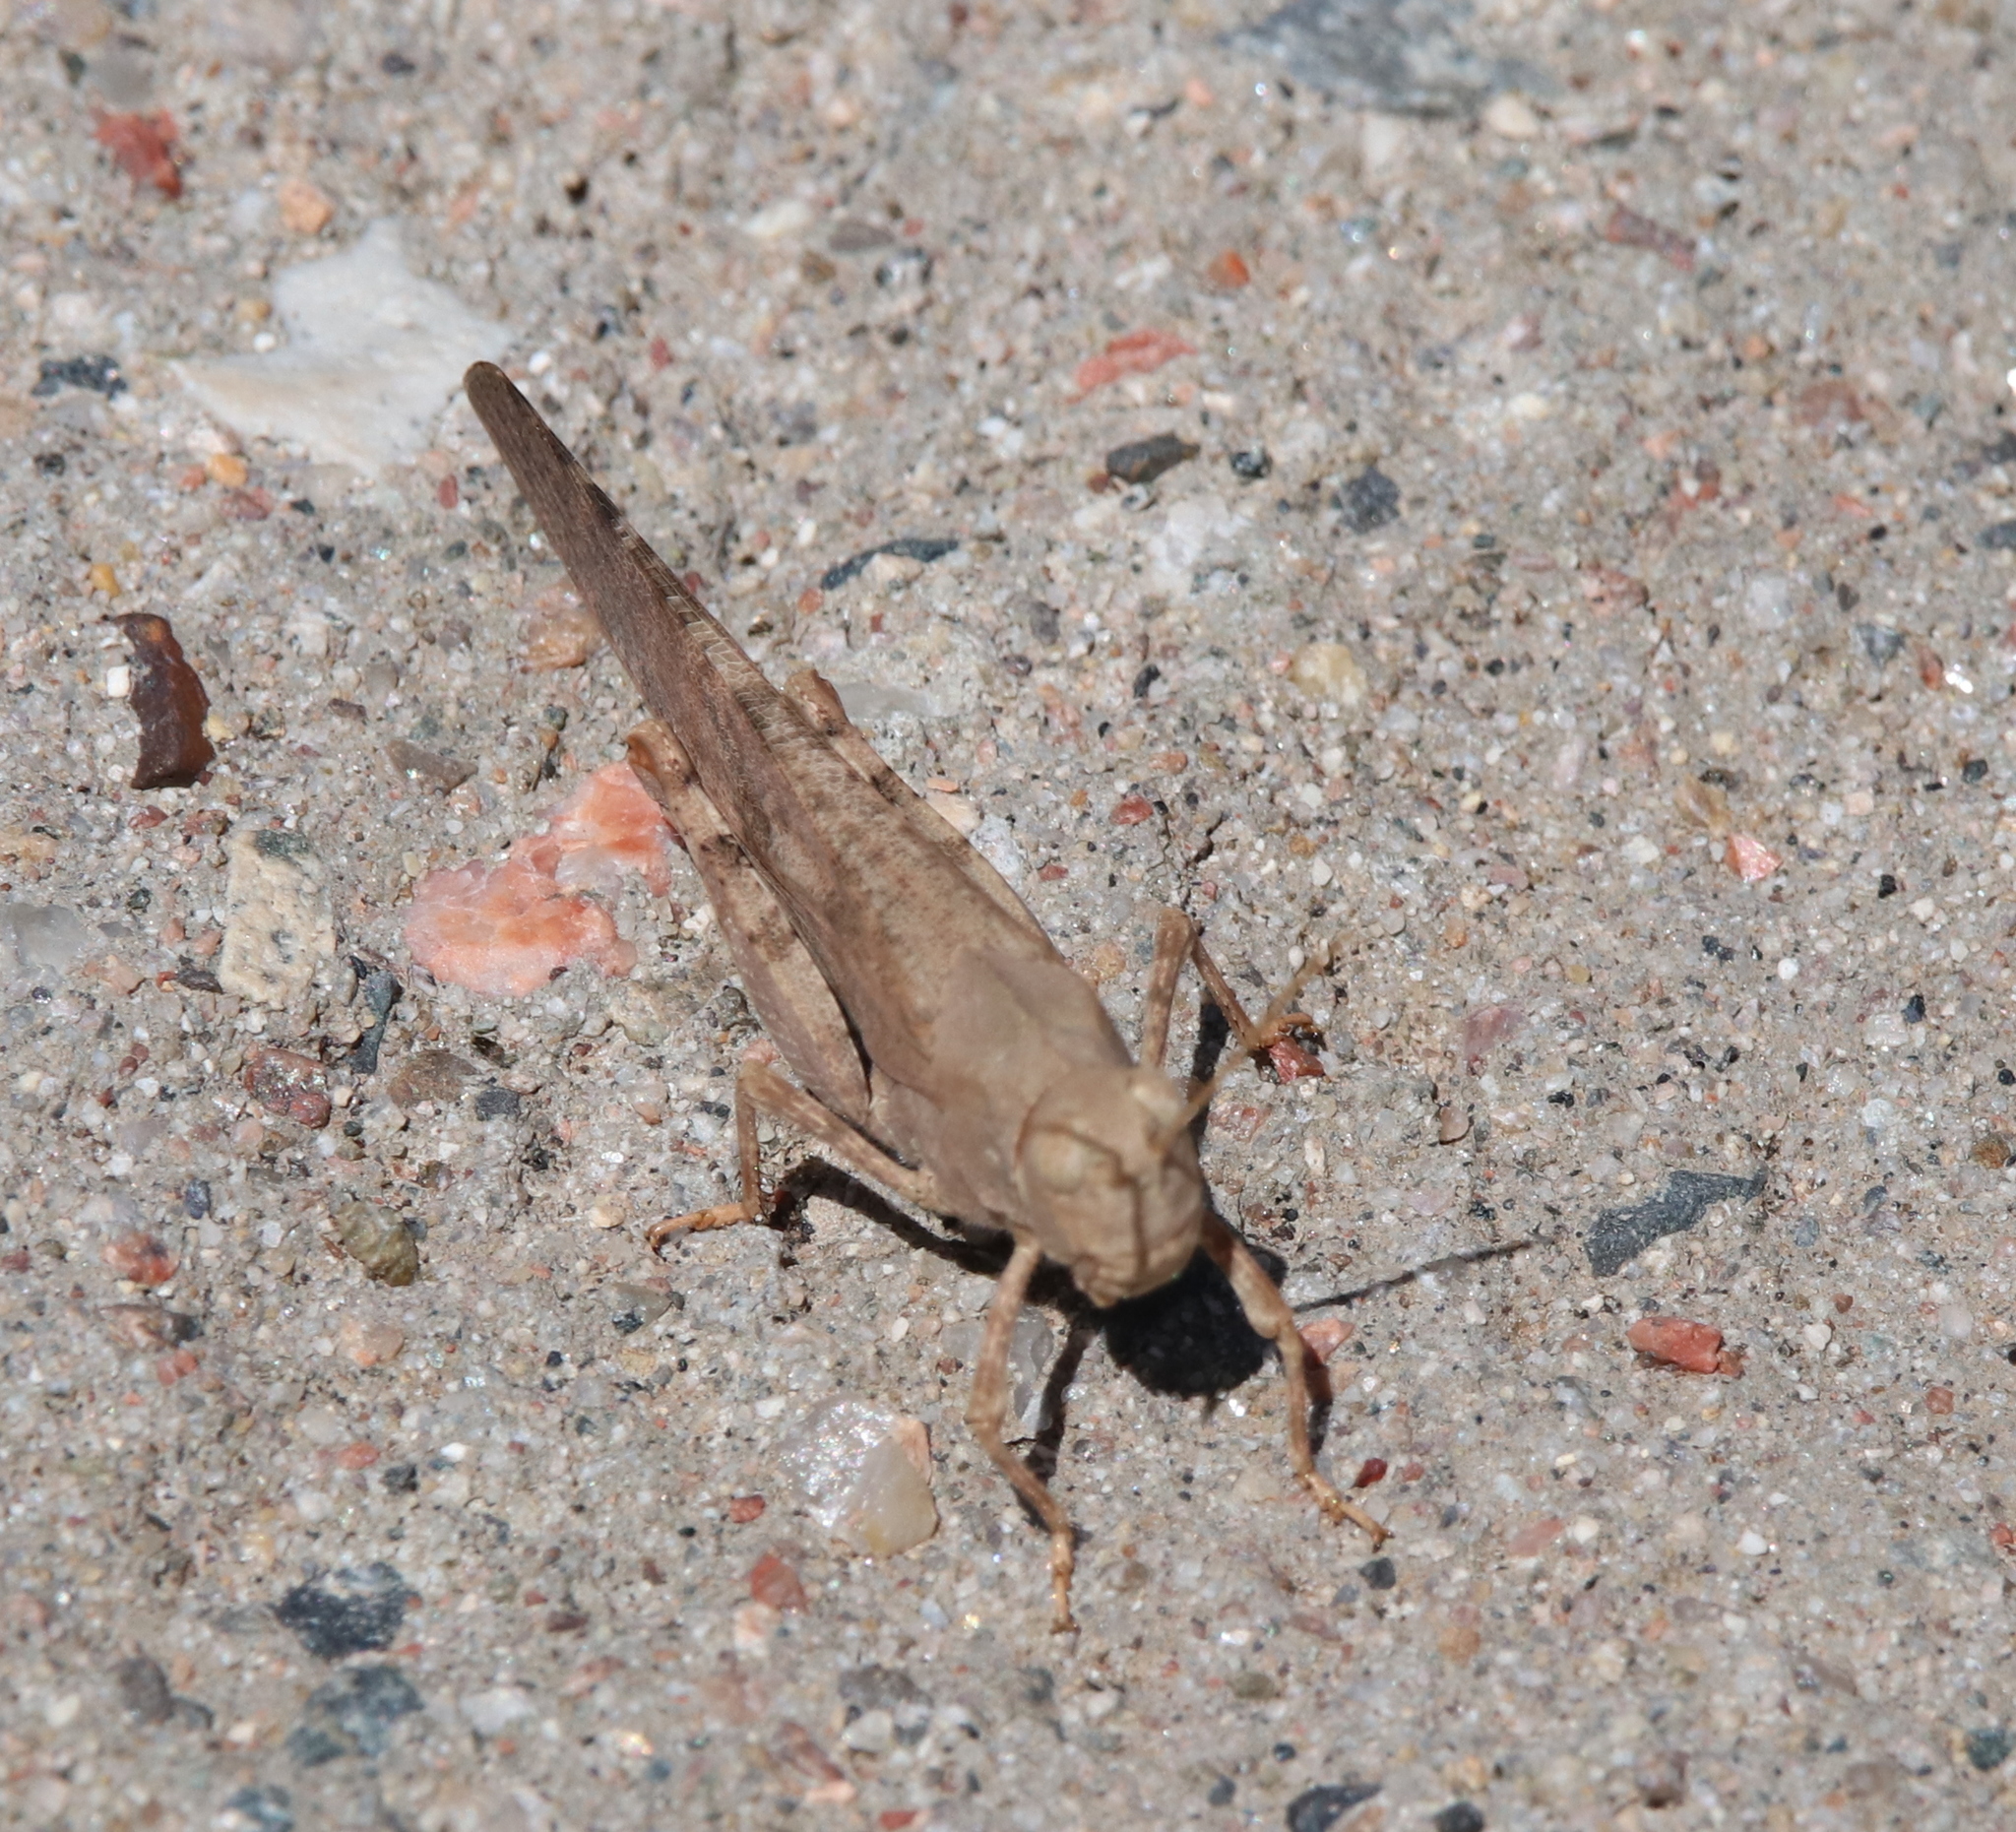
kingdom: Animalia
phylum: Arthropoda
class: Insecta
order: Orthoptera
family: Acrididae
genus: Dissosteira
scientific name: Dissosteira carolina
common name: Carolina grasshopper
